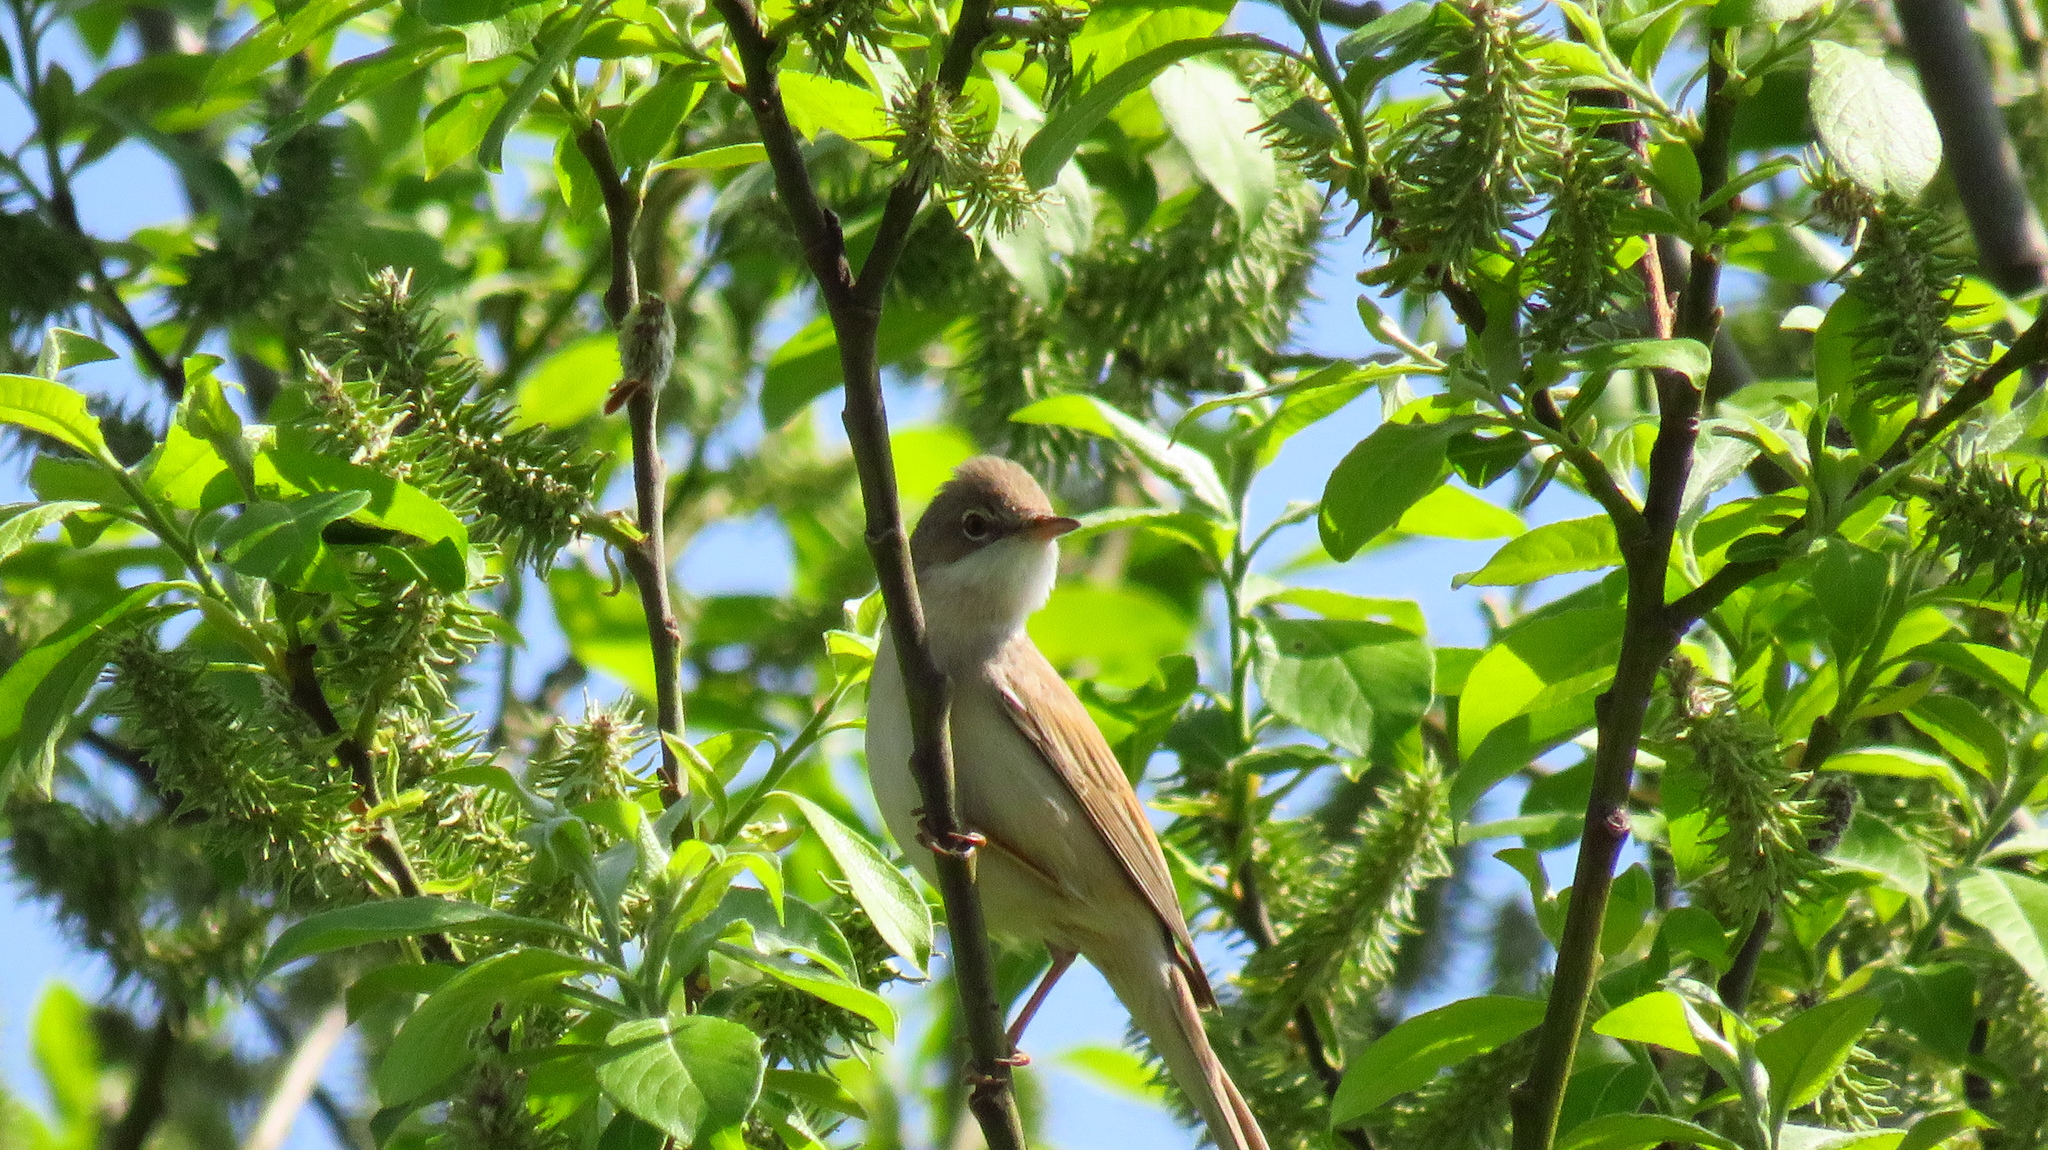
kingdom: Animalia
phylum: Chordata
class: Aves
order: Passeriformes
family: Sylviidae
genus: Sylvia
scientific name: Sylvia communis
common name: Common whitethroat
